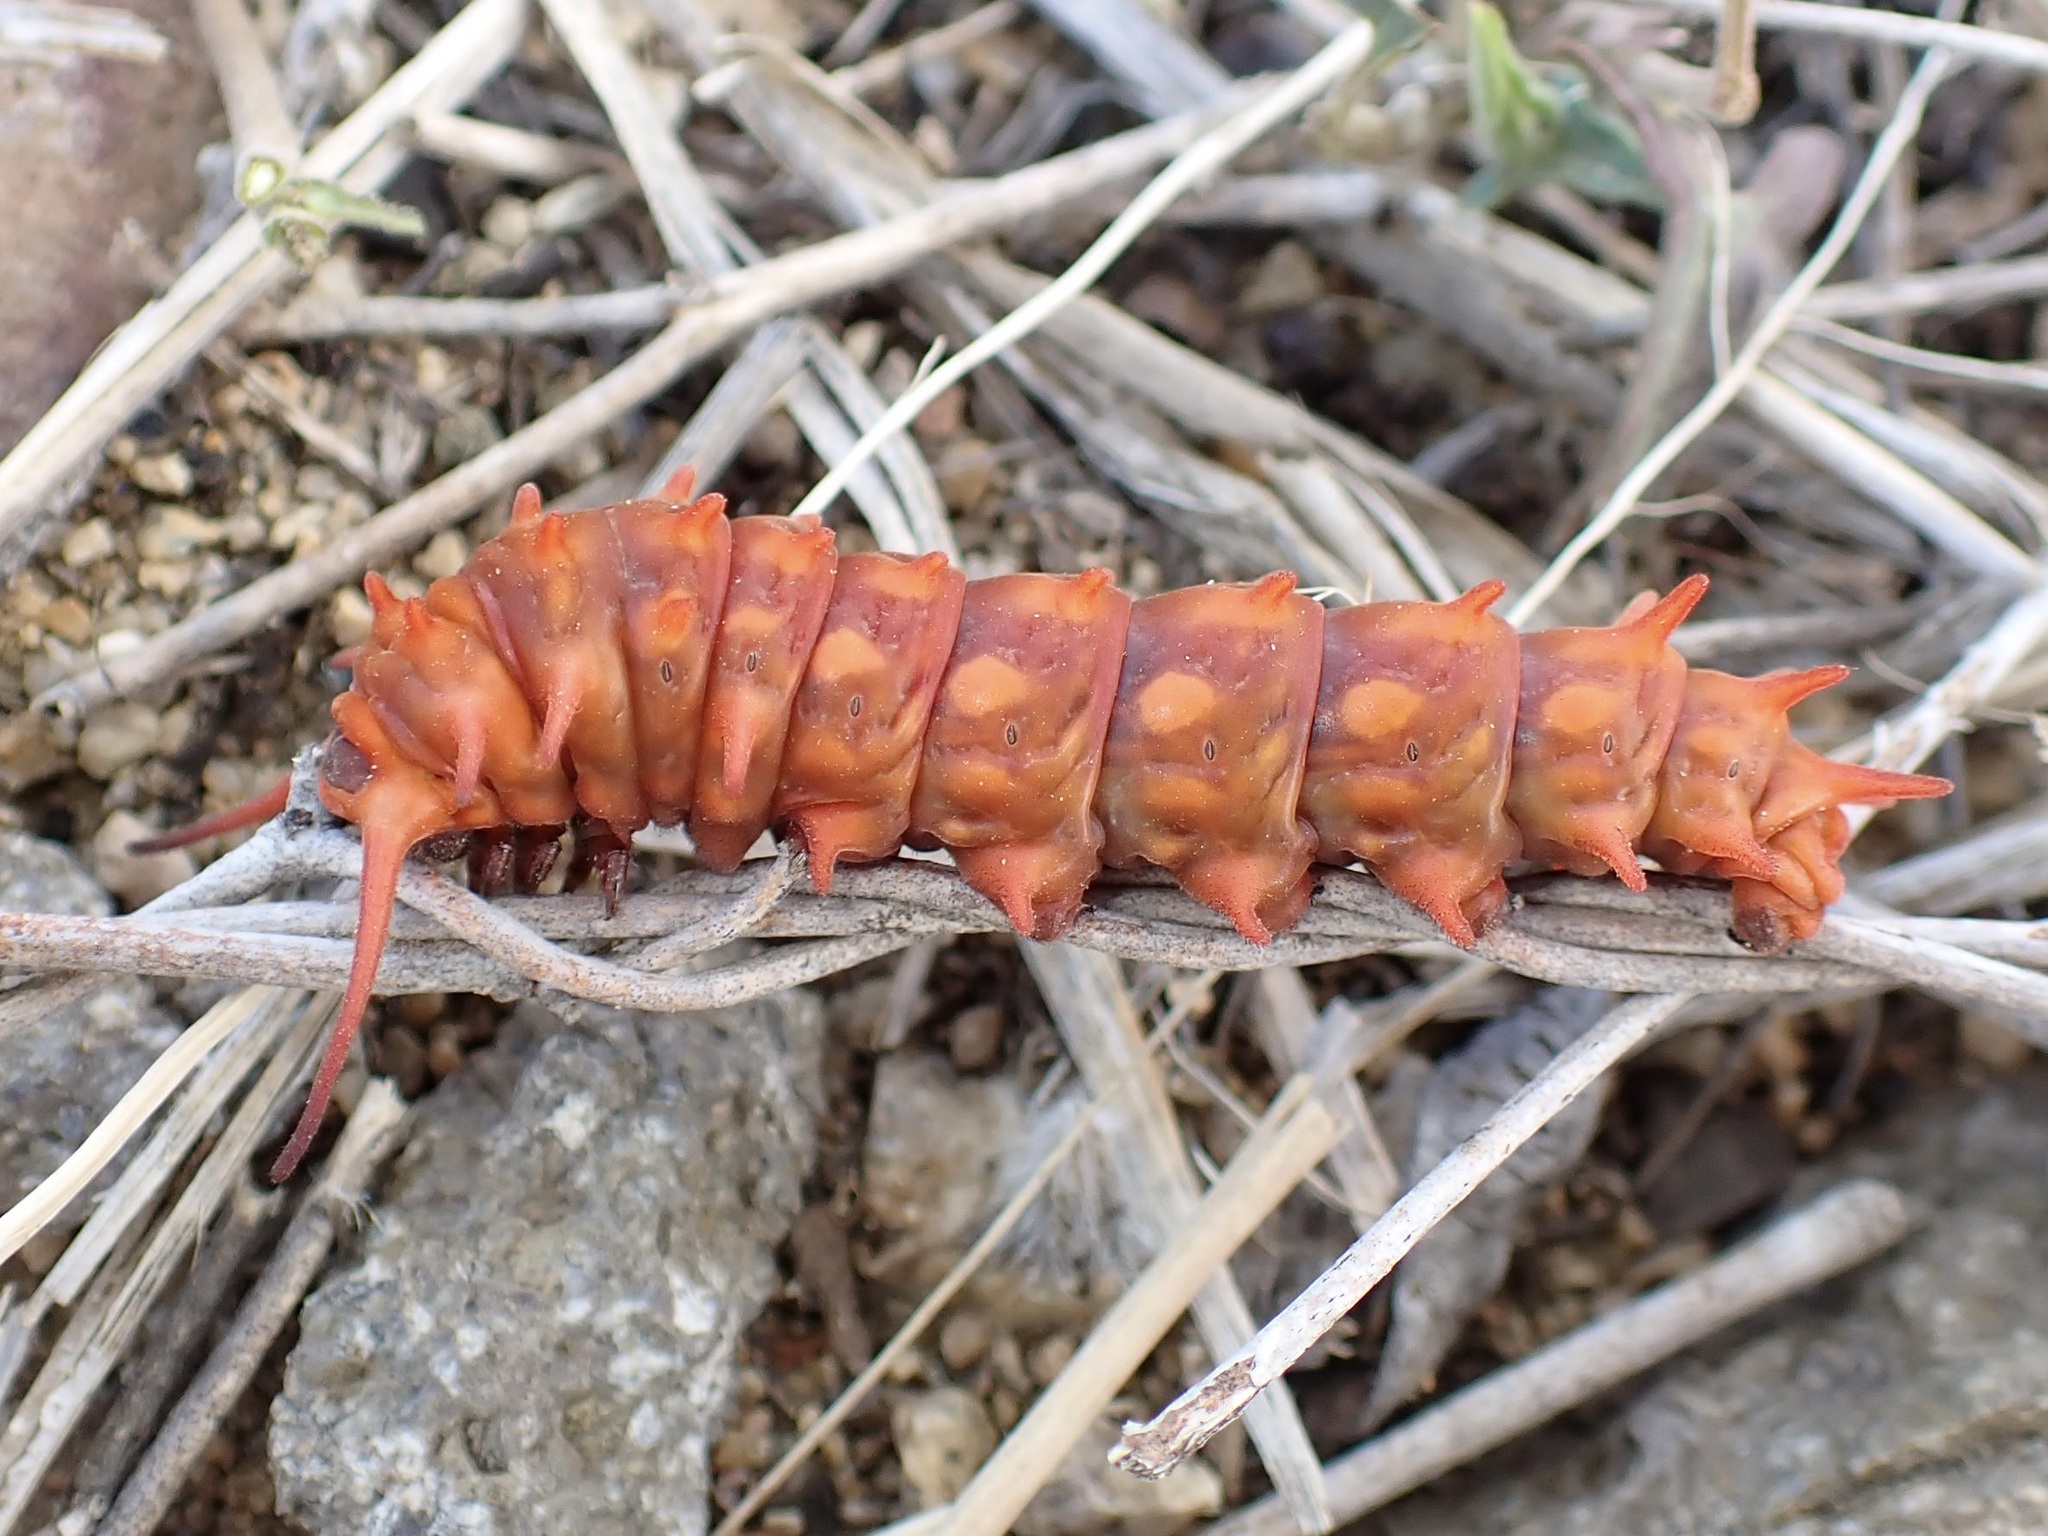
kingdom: Animalia
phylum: Arthropoda
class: Insecta
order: Lepidoptera
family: Papilionidae
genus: Battus
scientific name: Battus philenor
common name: Pipevine swallowtail
